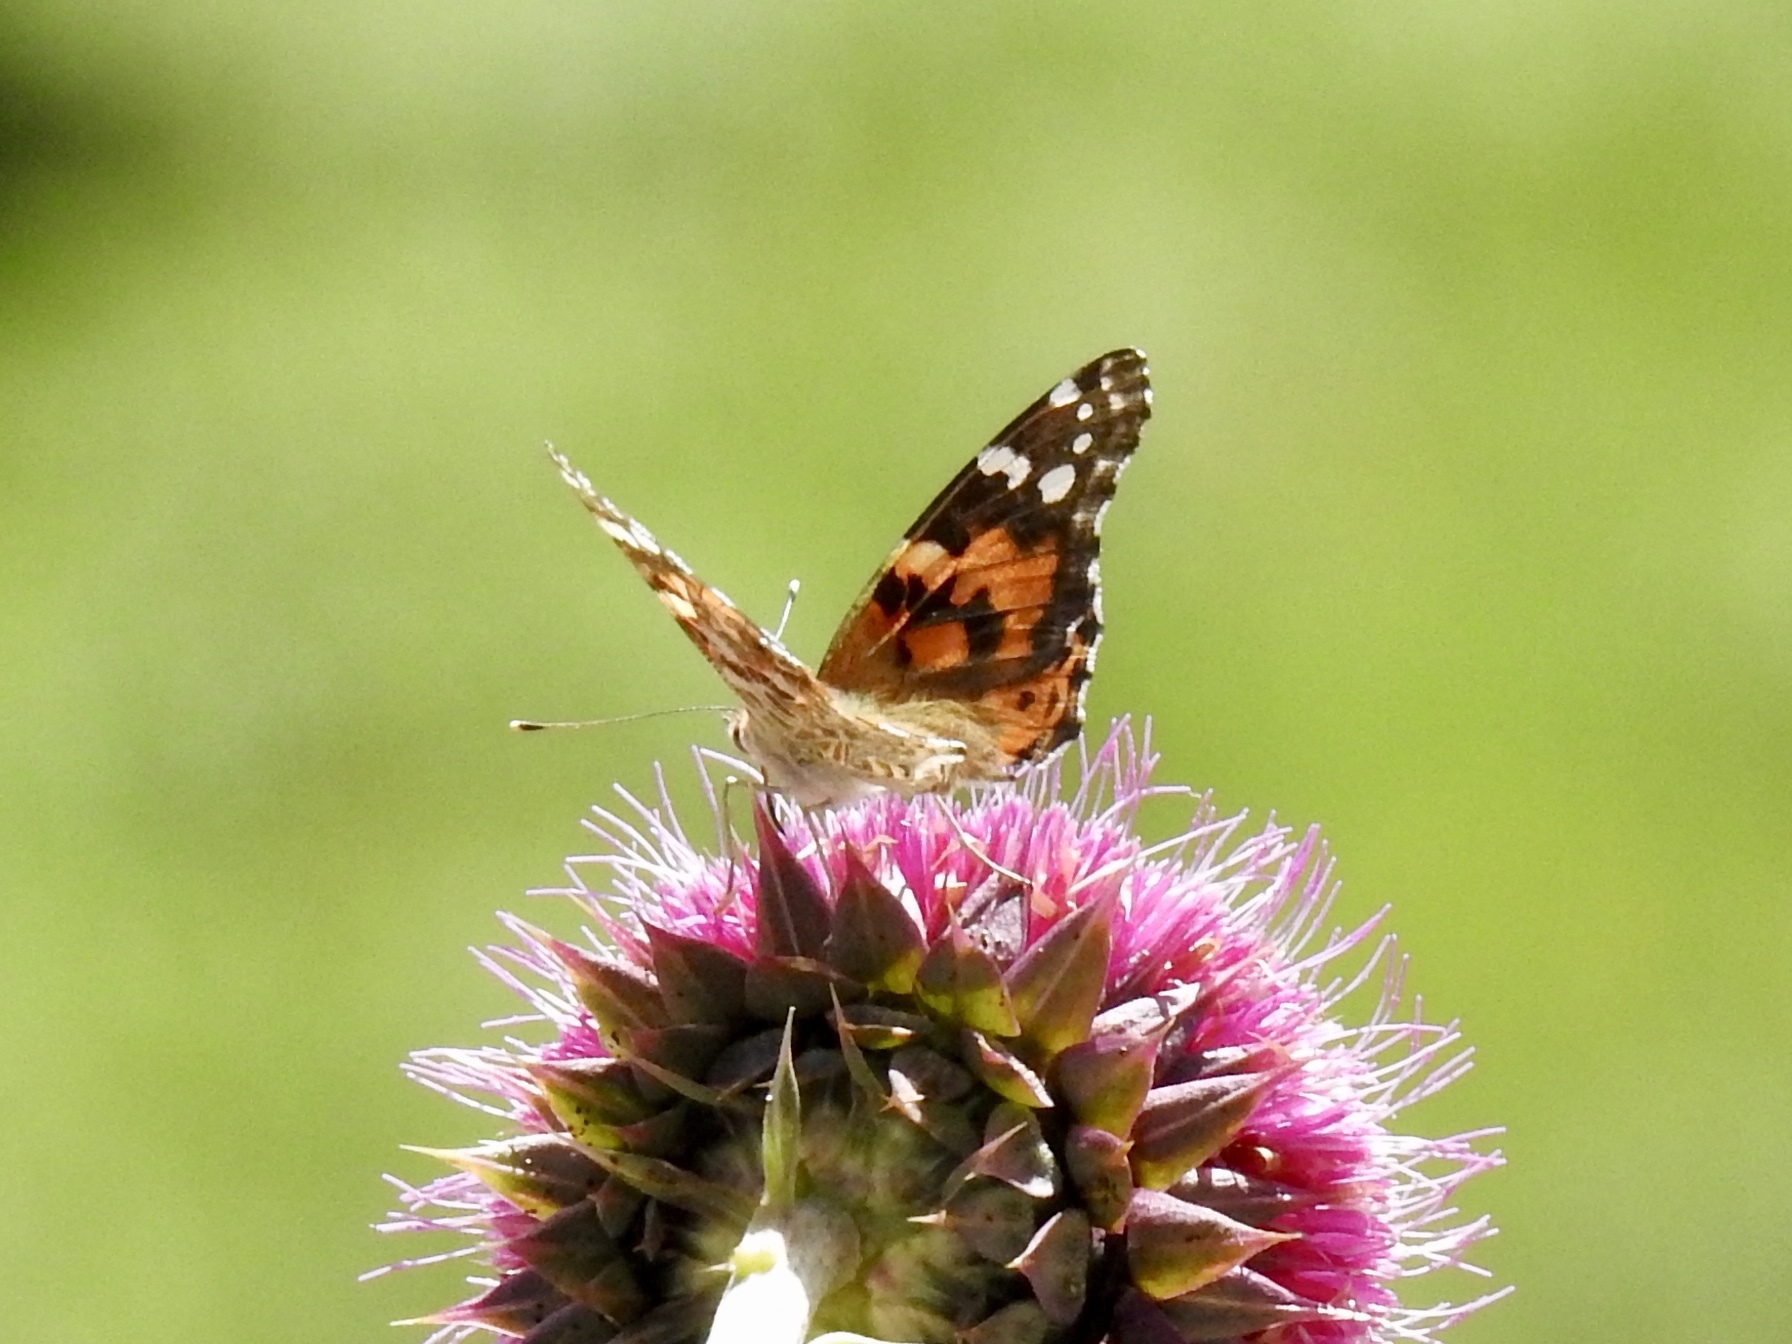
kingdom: Animalia
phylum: Arthropoda
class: Insecta
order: Lepidoptera
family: Nymphalidae
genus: Vanessa
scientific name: Vanessa cardui
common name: Painted lady
